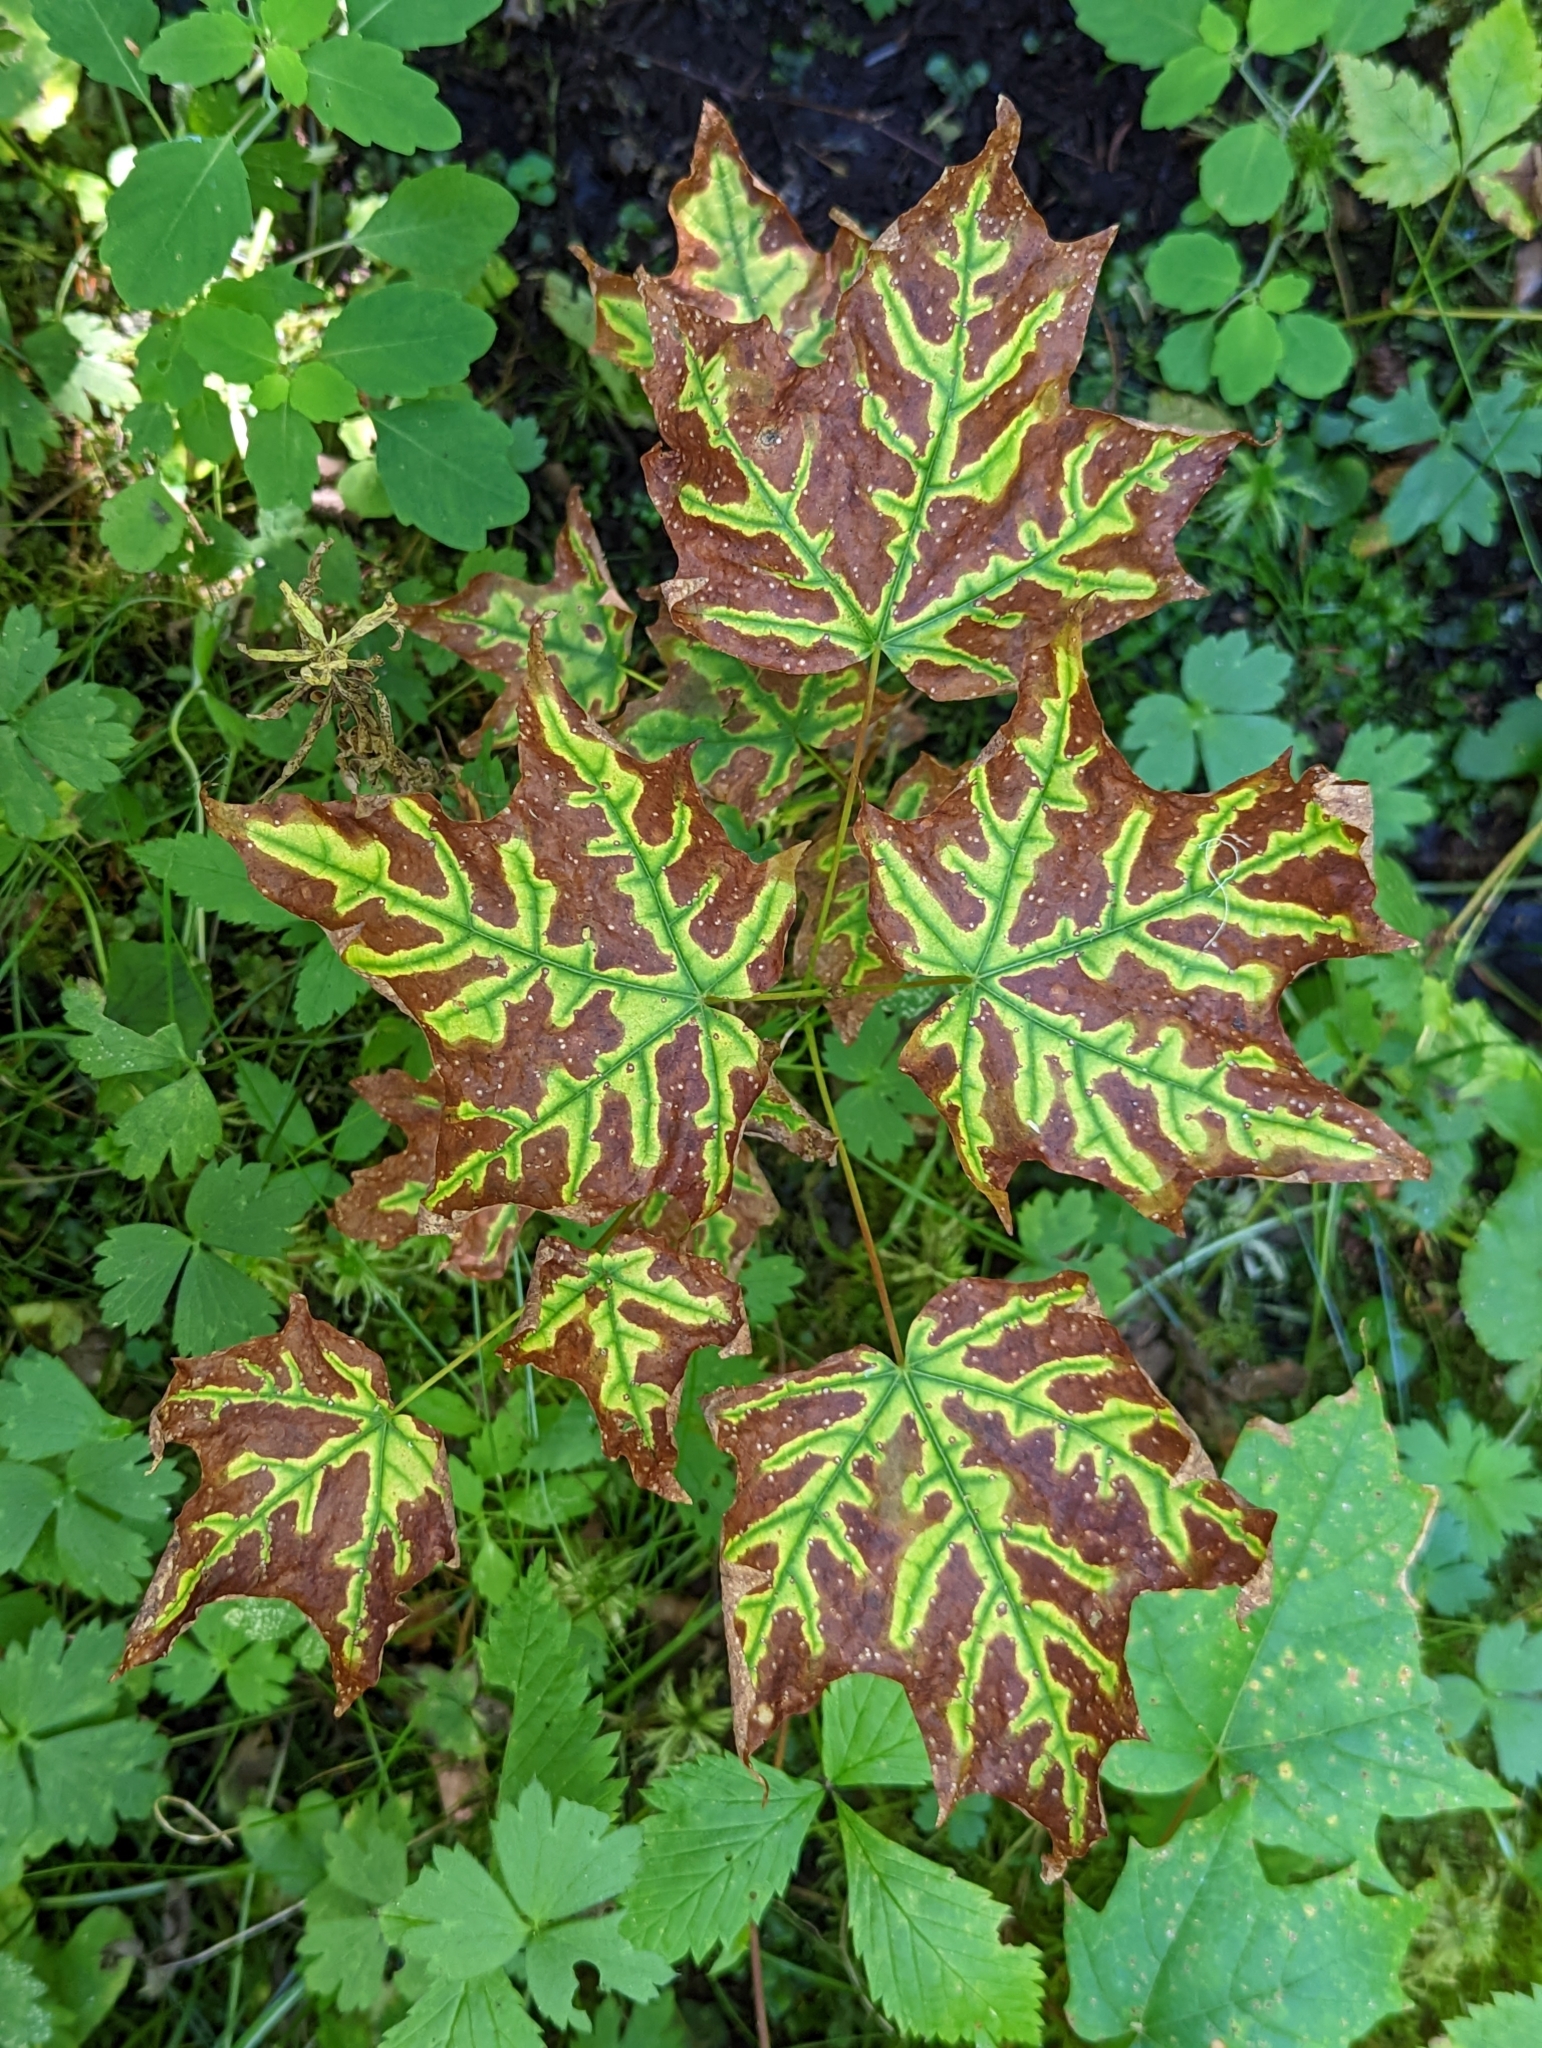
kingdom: Plantae
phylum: Tracheophyta
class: Magnoliopsida
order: Sapindales
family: Sapindaceae
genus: Acer
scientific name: Acer saccharum
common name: Sugar maple
